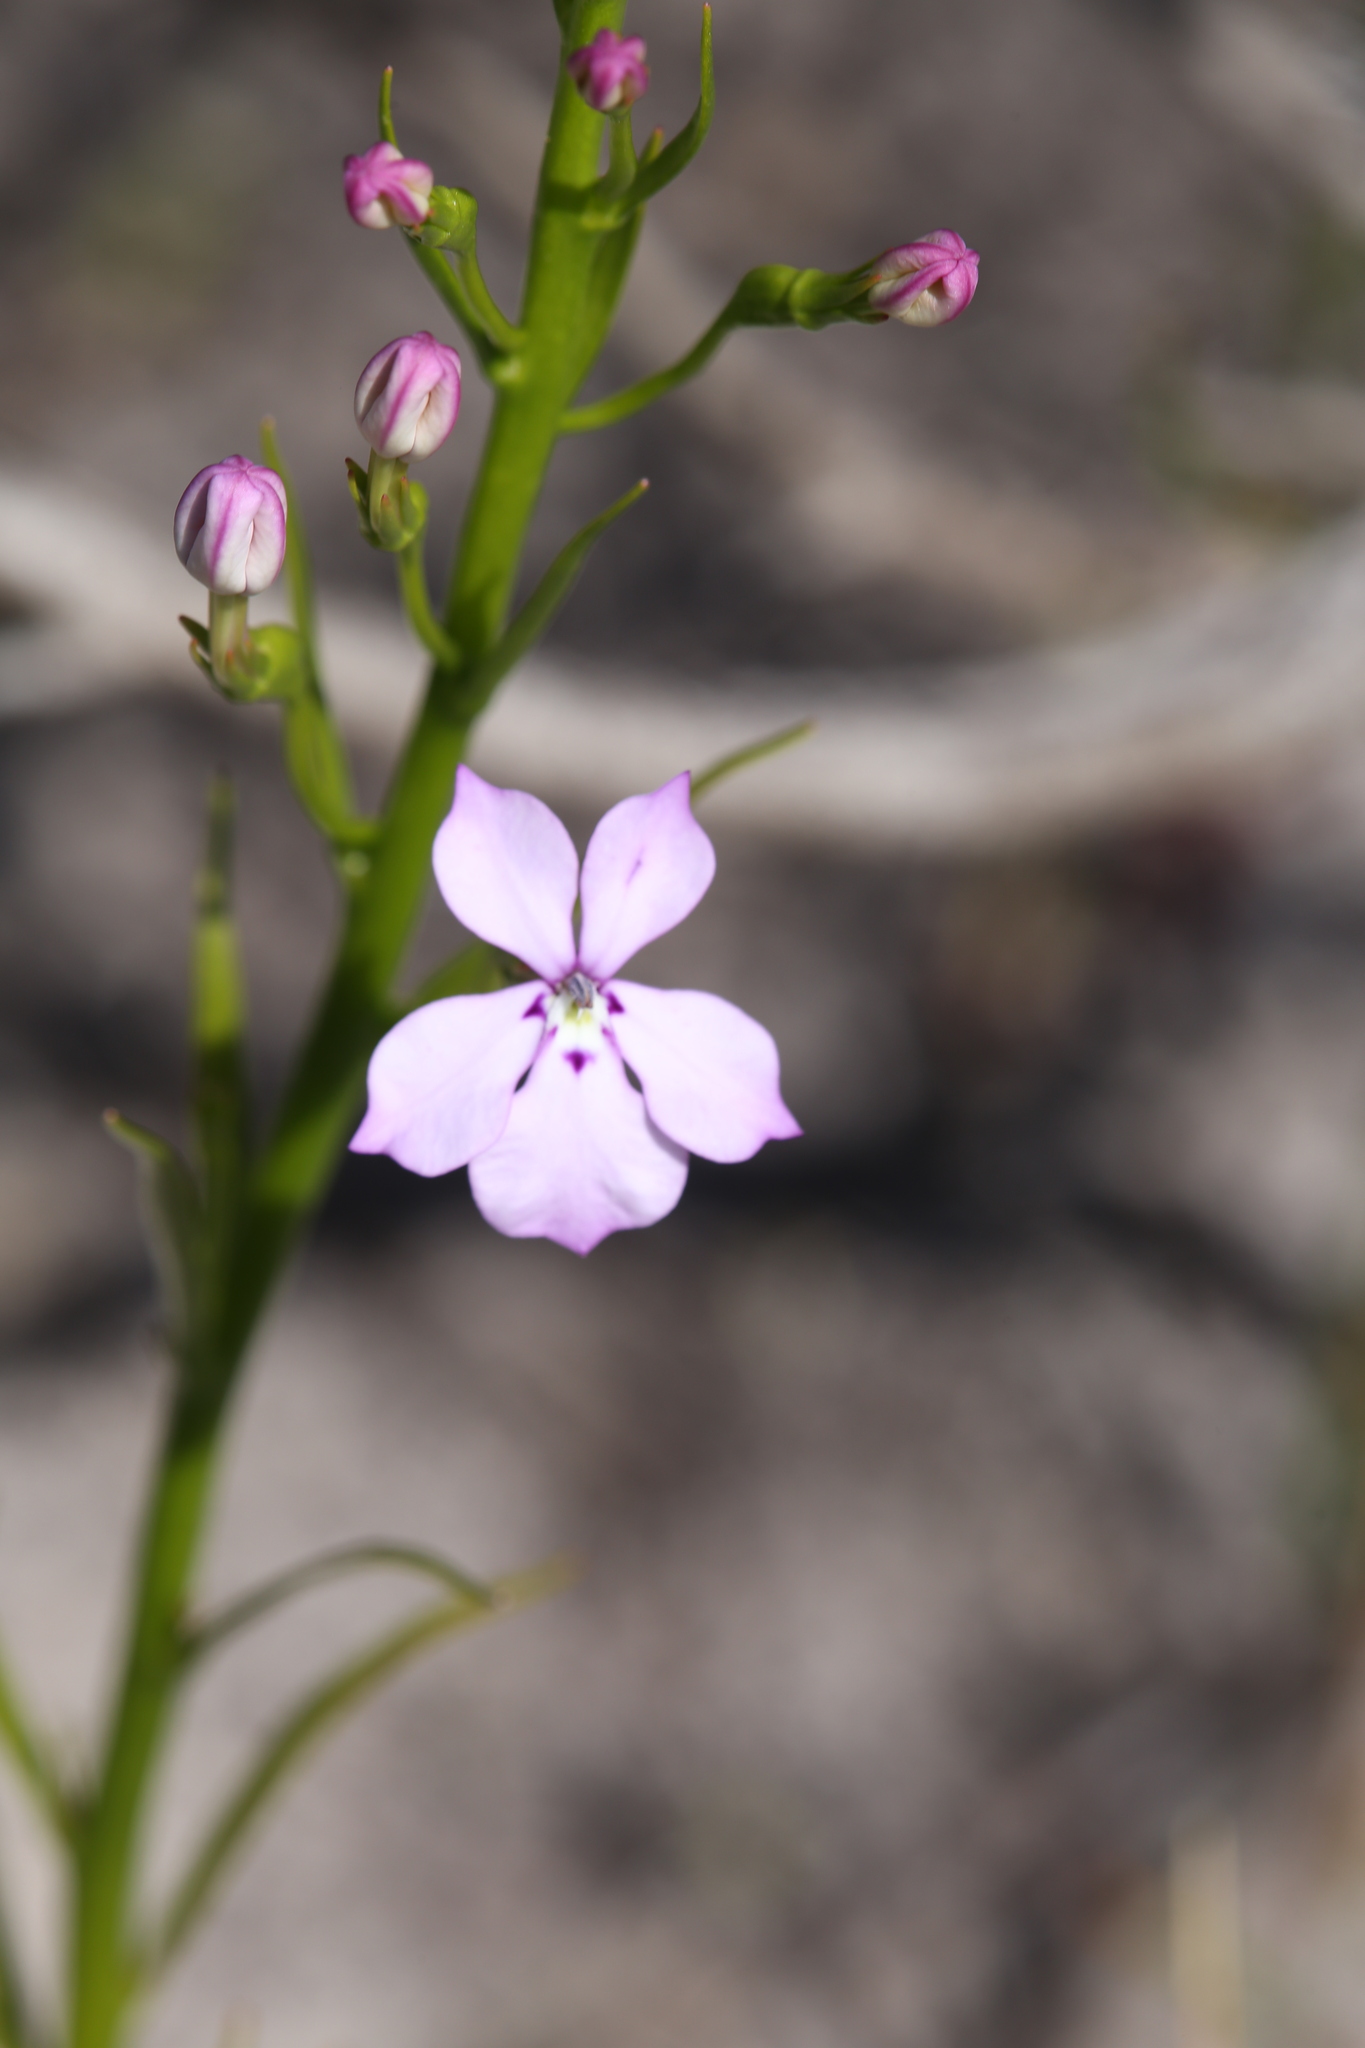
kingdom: Plantae
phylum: Tracheophyta
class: Magnoliopsida
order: Asterales
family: Campanulaceae
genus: Isotoma
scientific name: Isotoma hypocrateriformis
